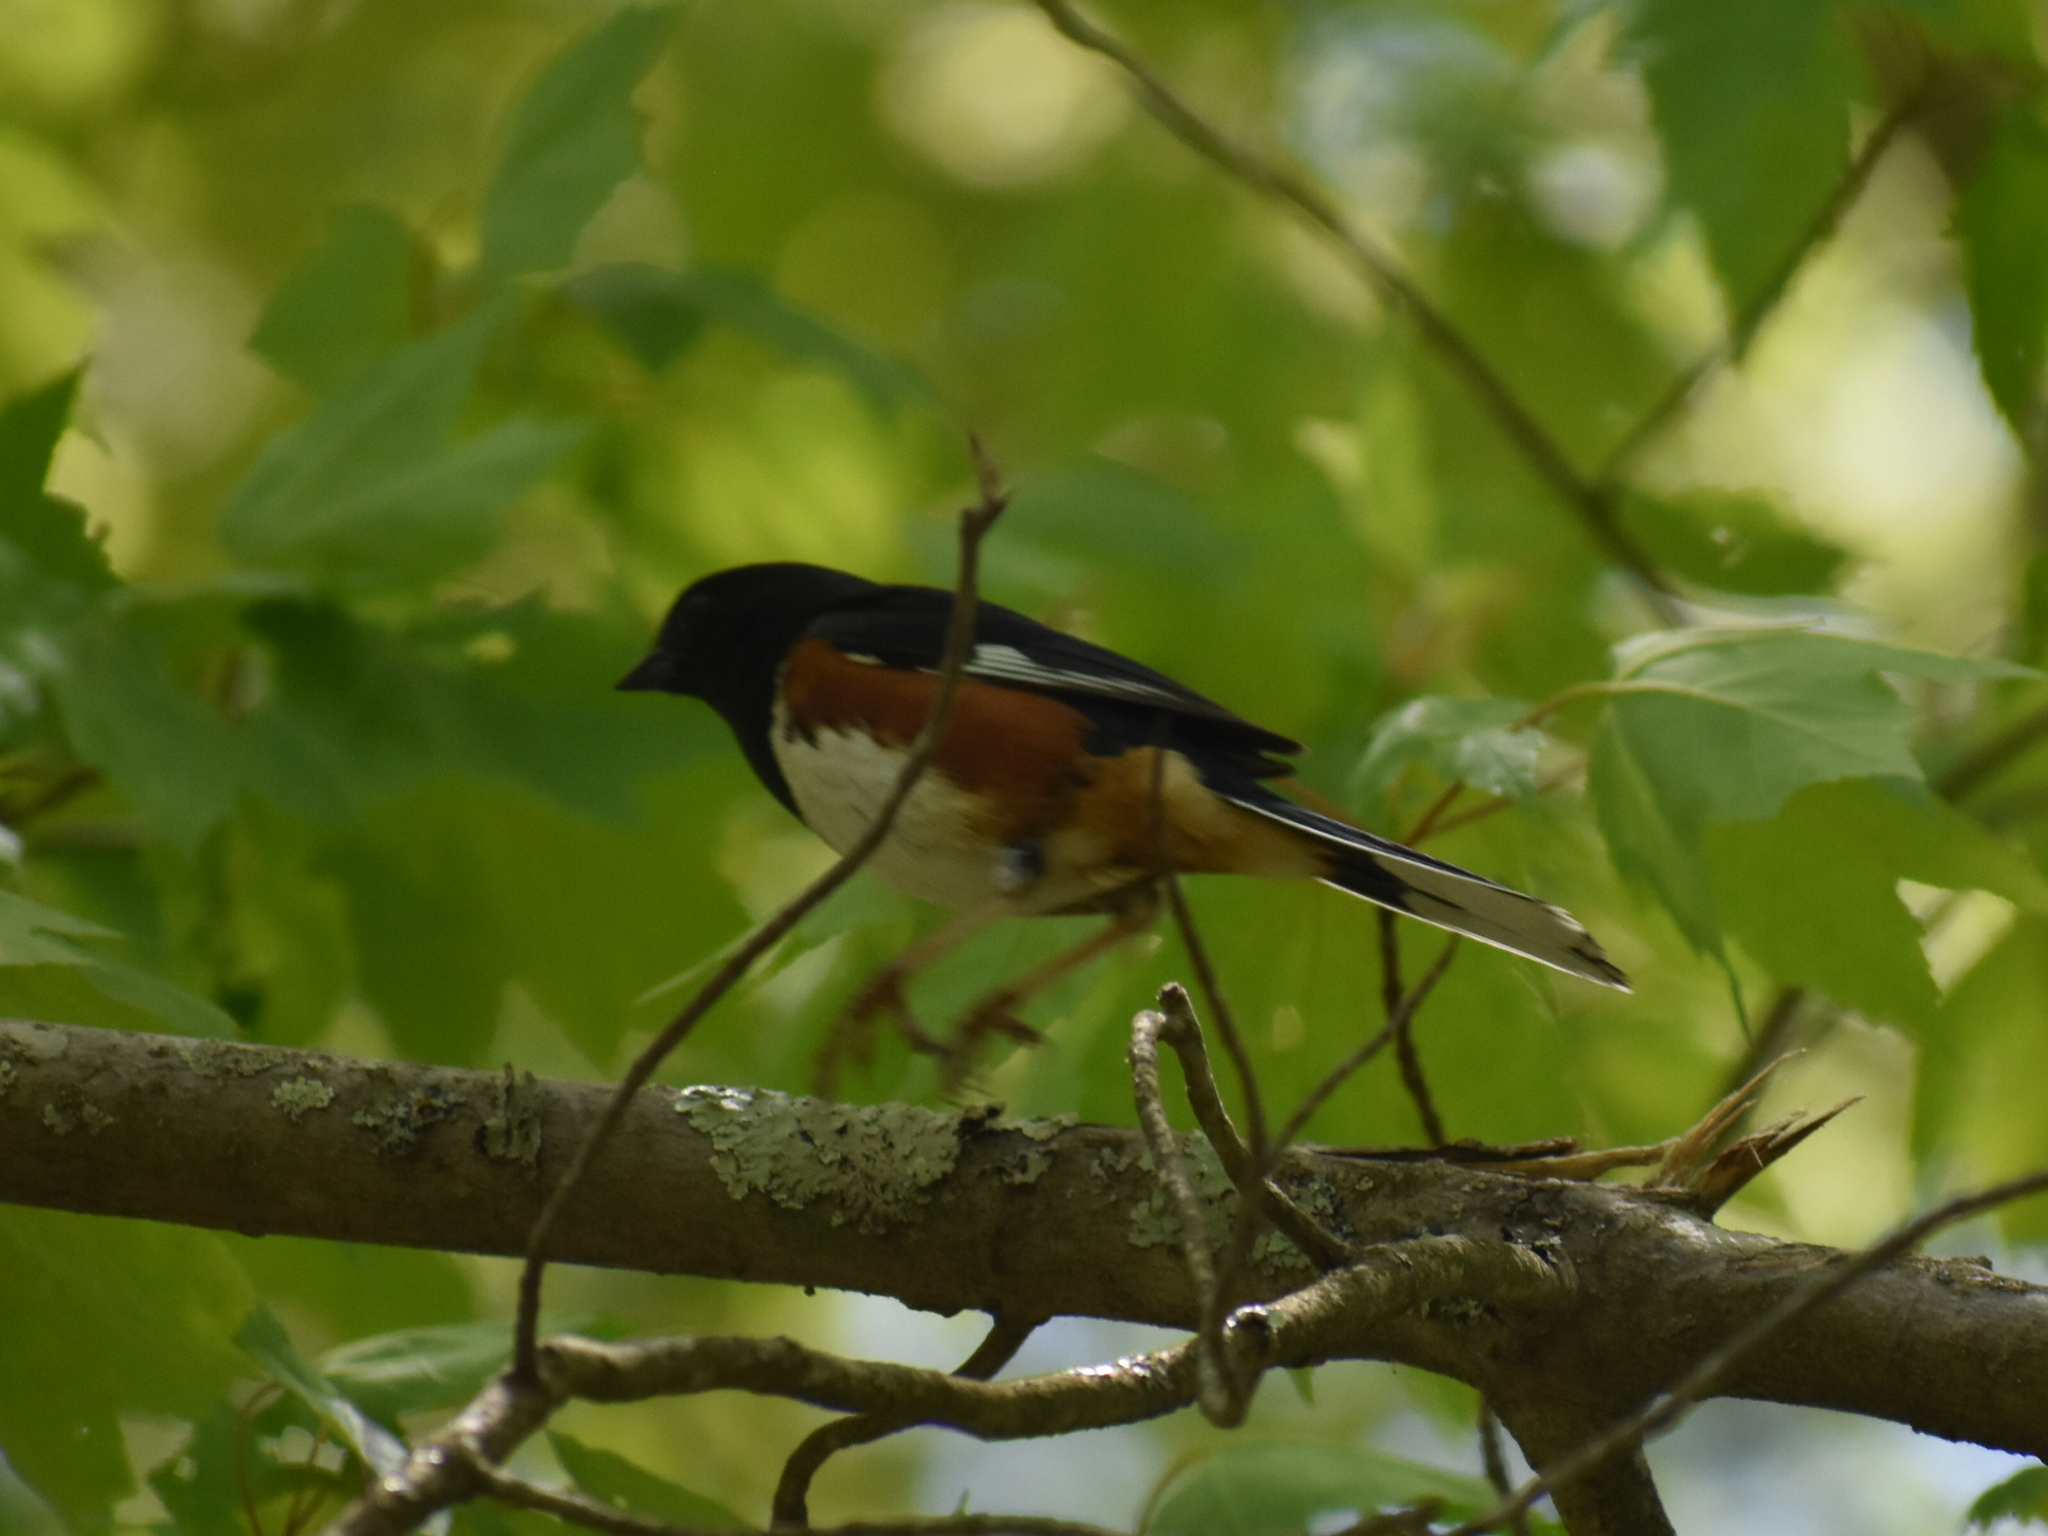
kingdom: Animalia
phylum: Chordata
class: Aves
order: Passeriformes
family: Passerellidae
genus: Pipilo
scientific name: Pipilo erythrophthalmus
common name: Eastern towhee
